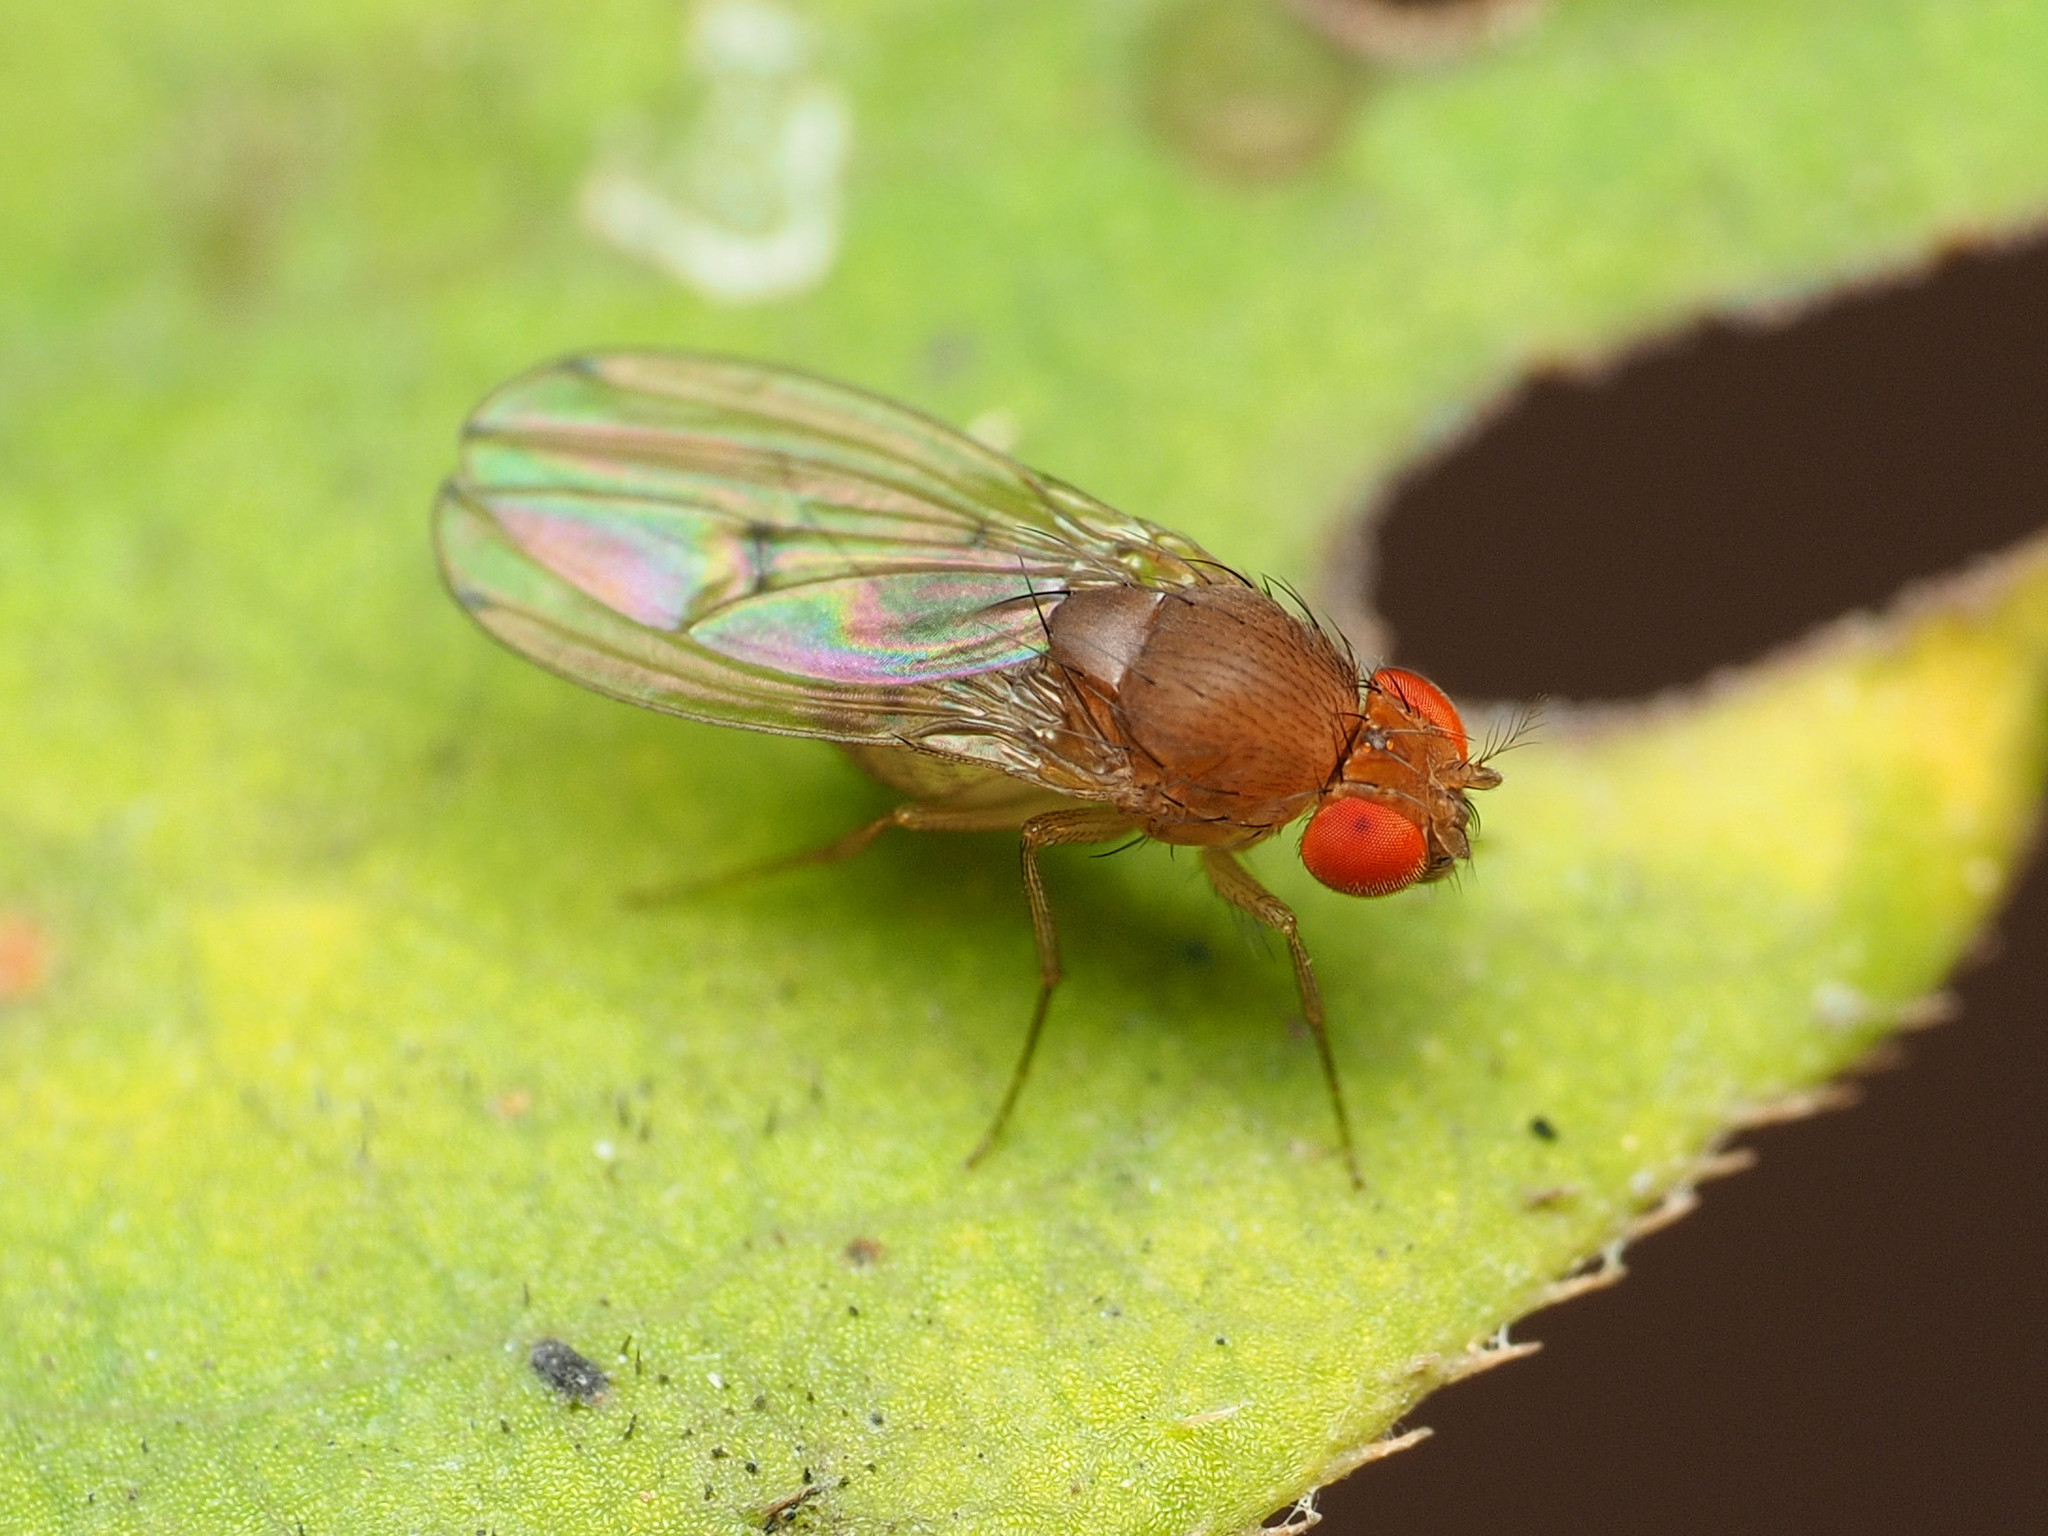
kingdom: Animalia
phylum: Arthropoda
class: Insecta
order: Diptera
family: Drosophilidae
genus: Drosophila
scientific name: Drosophila tripunctata
